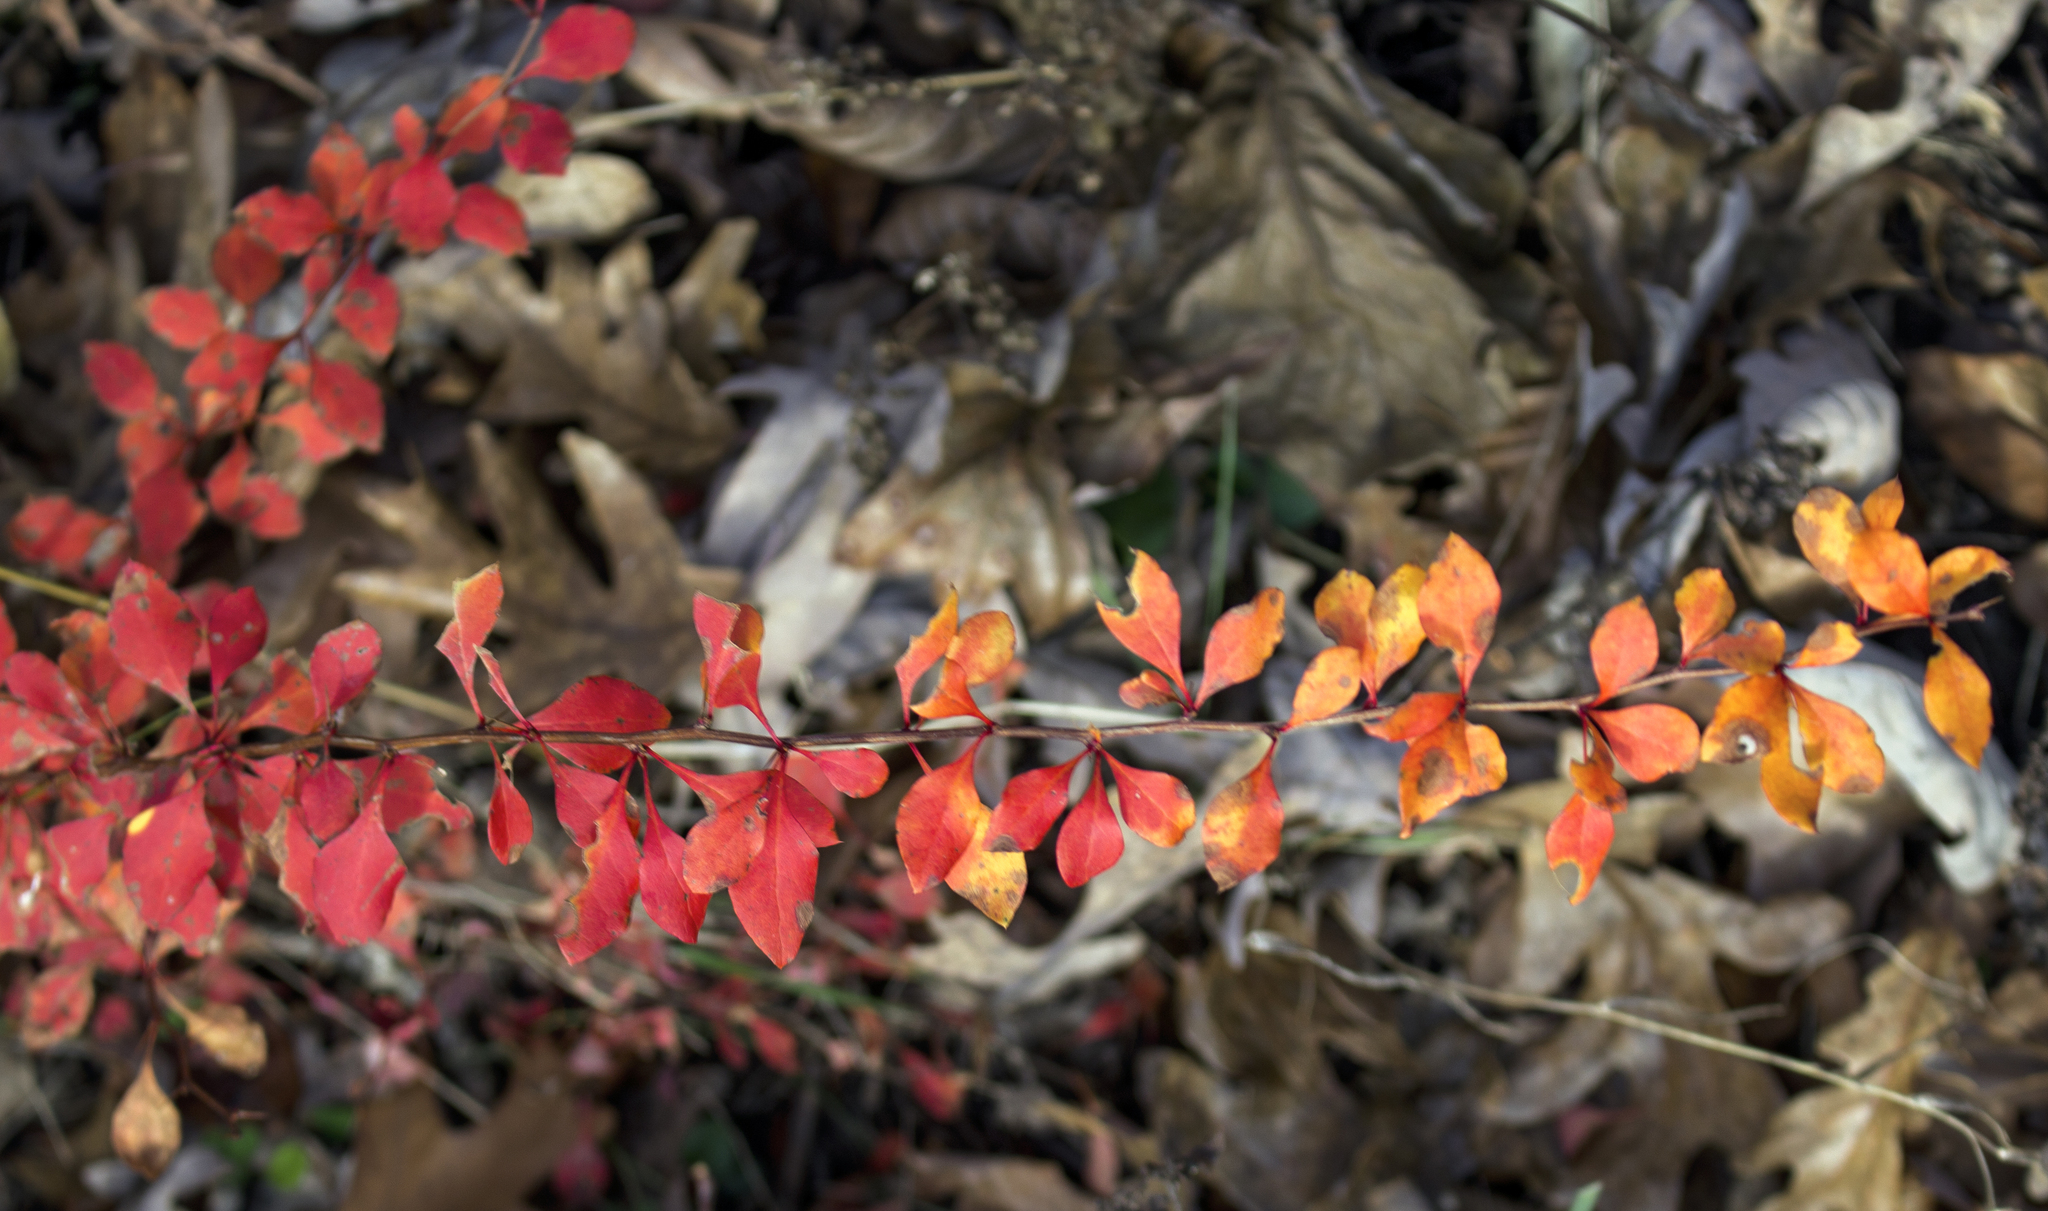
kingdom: Plantae
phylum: Tracheophyta
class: Magnoliopsida
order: Ranunculales
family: Berberidaceae
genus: Berberis
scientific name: Berberis thunbergii
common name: Japanese barberry
